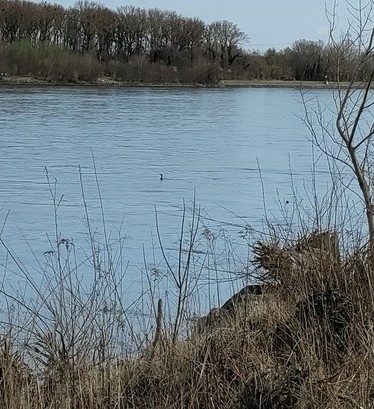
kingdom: Animalia
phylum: Chordata
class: Aves
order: Suliformes
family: Phalacrocoracidae
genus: Phalacrocorax
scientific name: Phalacrocorax carbo
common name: Great cormorant
